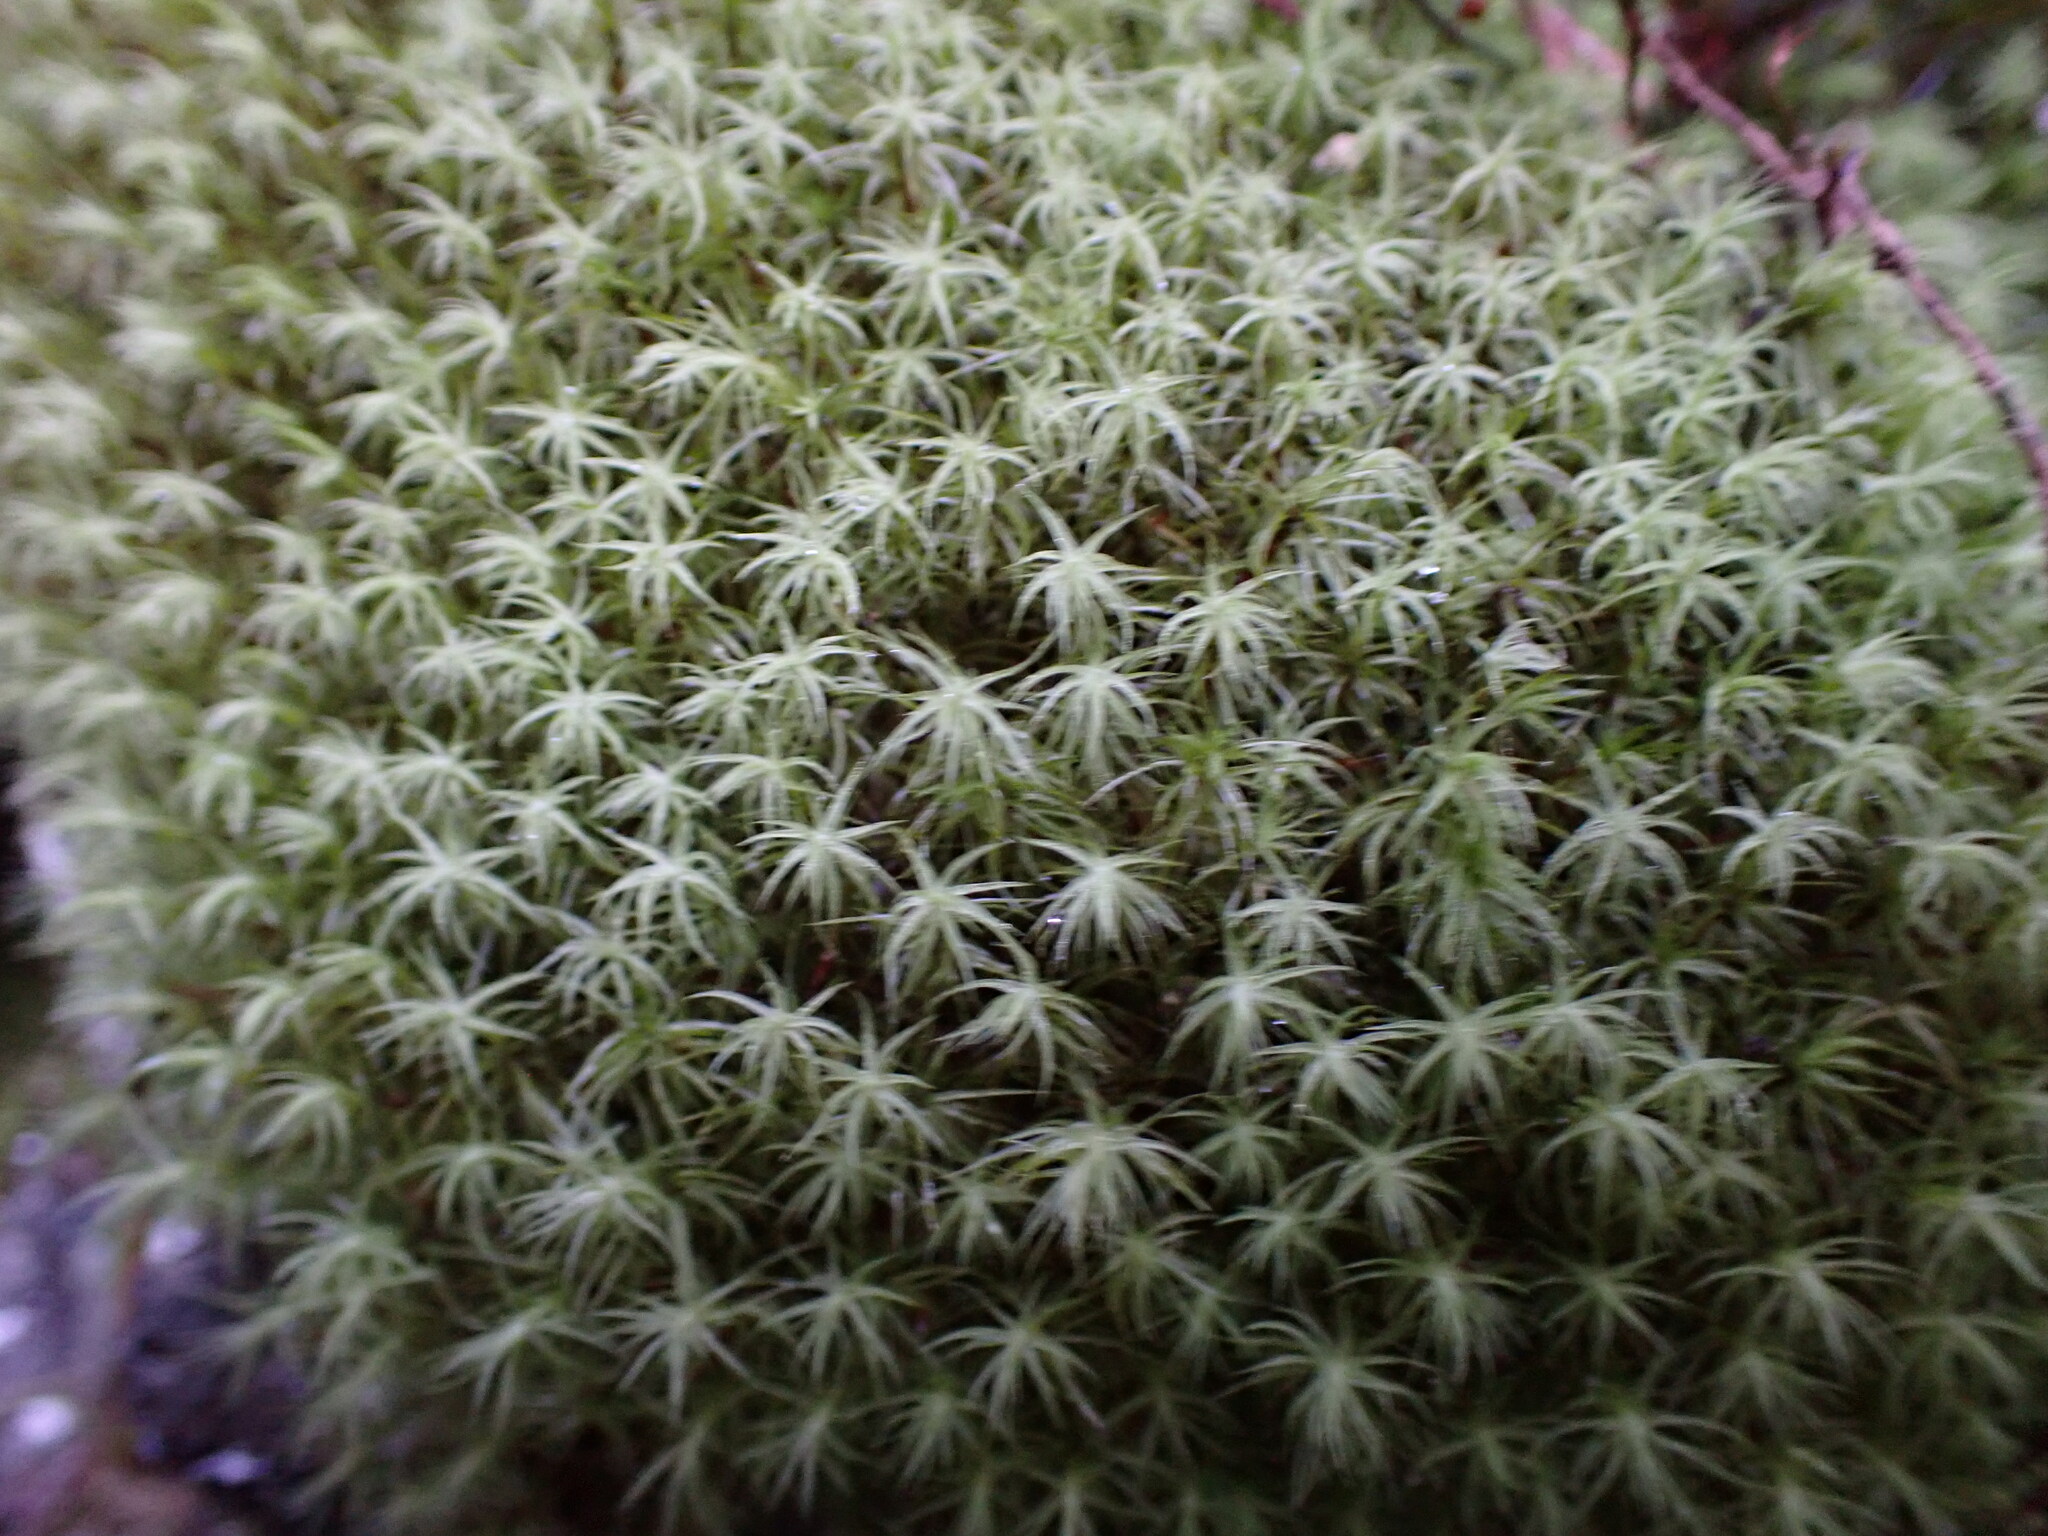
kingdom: Plantae
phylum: Bryophyta
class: Bryopsida
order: Bartramiales
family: Bartramiaceae
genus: Bartramia
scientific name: Bartramia ithyphylla
